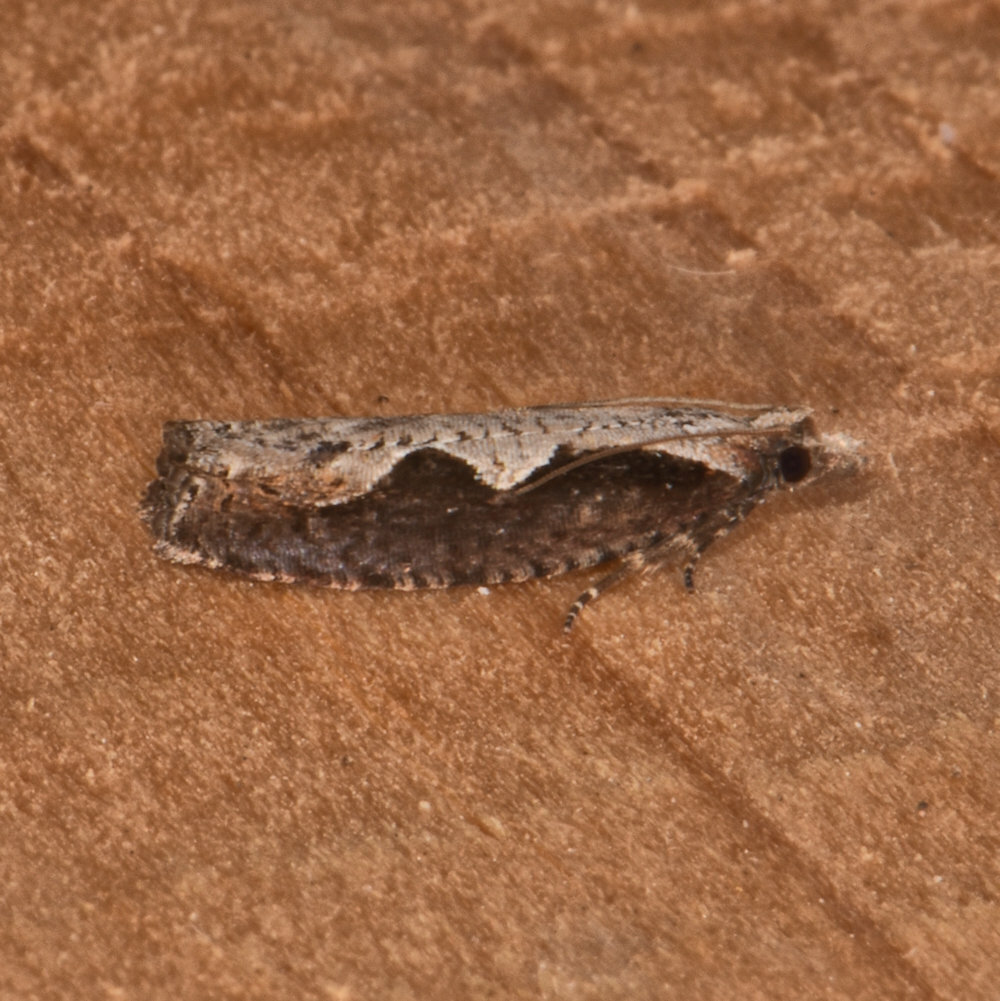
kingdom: Animalia
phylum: Arthropoda
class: Insecta
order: Lepidoptera
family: Tortricidae
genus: Epinotia
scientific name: Epinotia lindana
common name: Diamondback epinotia moth
